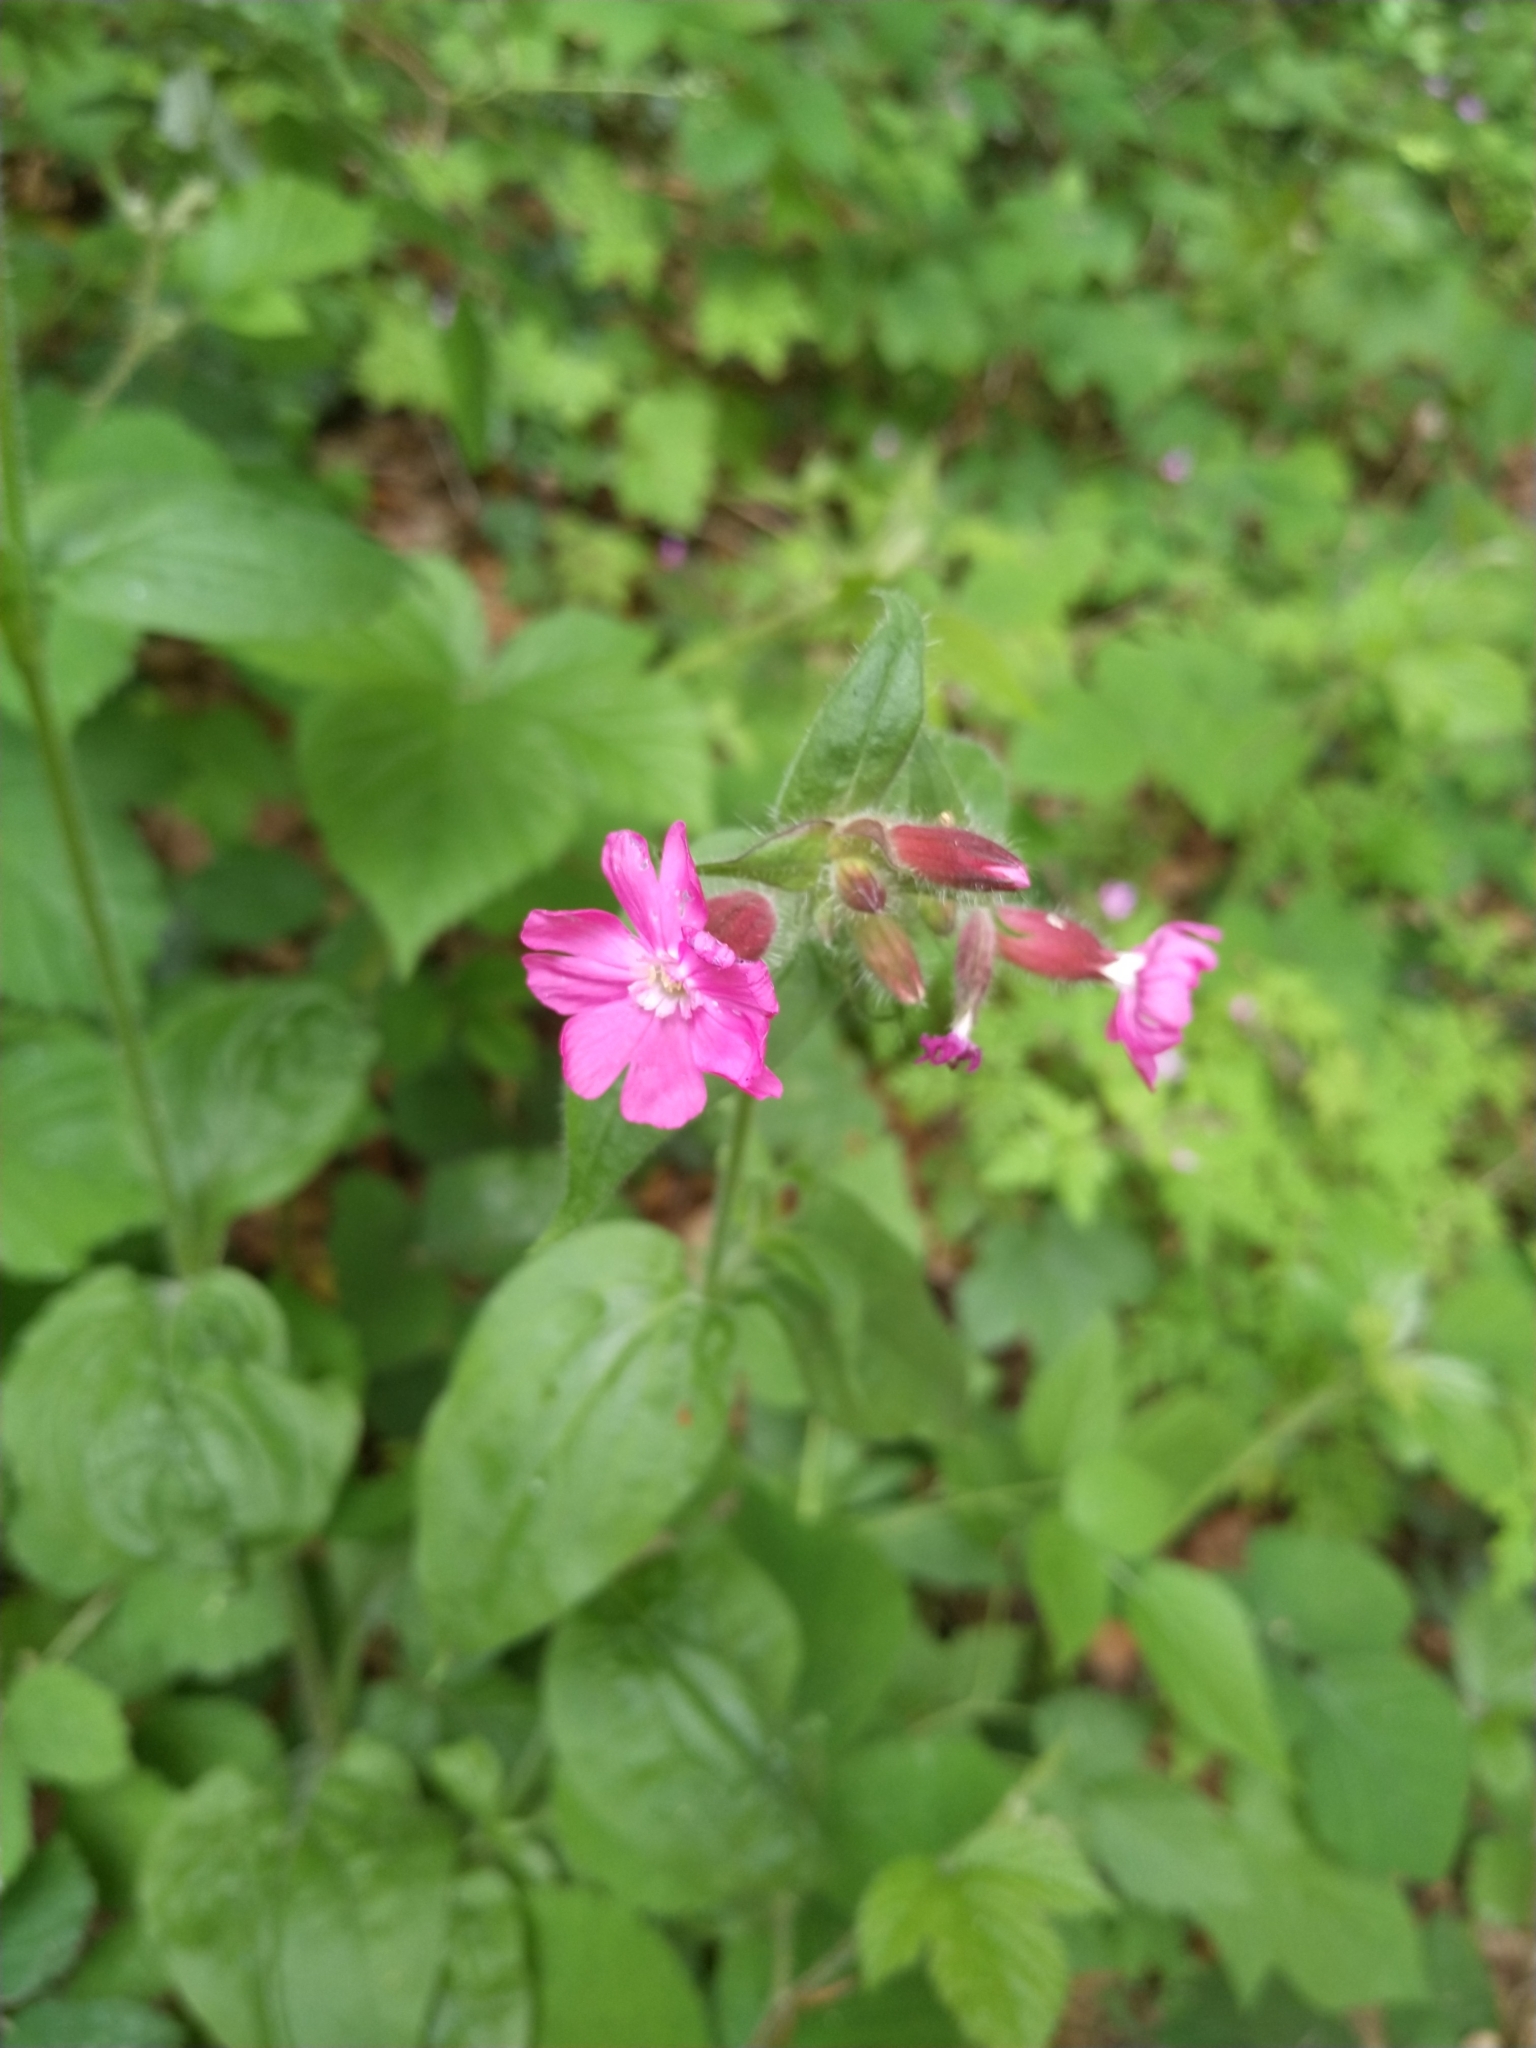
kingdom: Plantae
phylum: Tracheophyta
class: Magnoliopsida
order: Caryophyllales
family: Caryophyllaceae
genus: Silene
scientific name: Silene dioica
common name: Red campion
